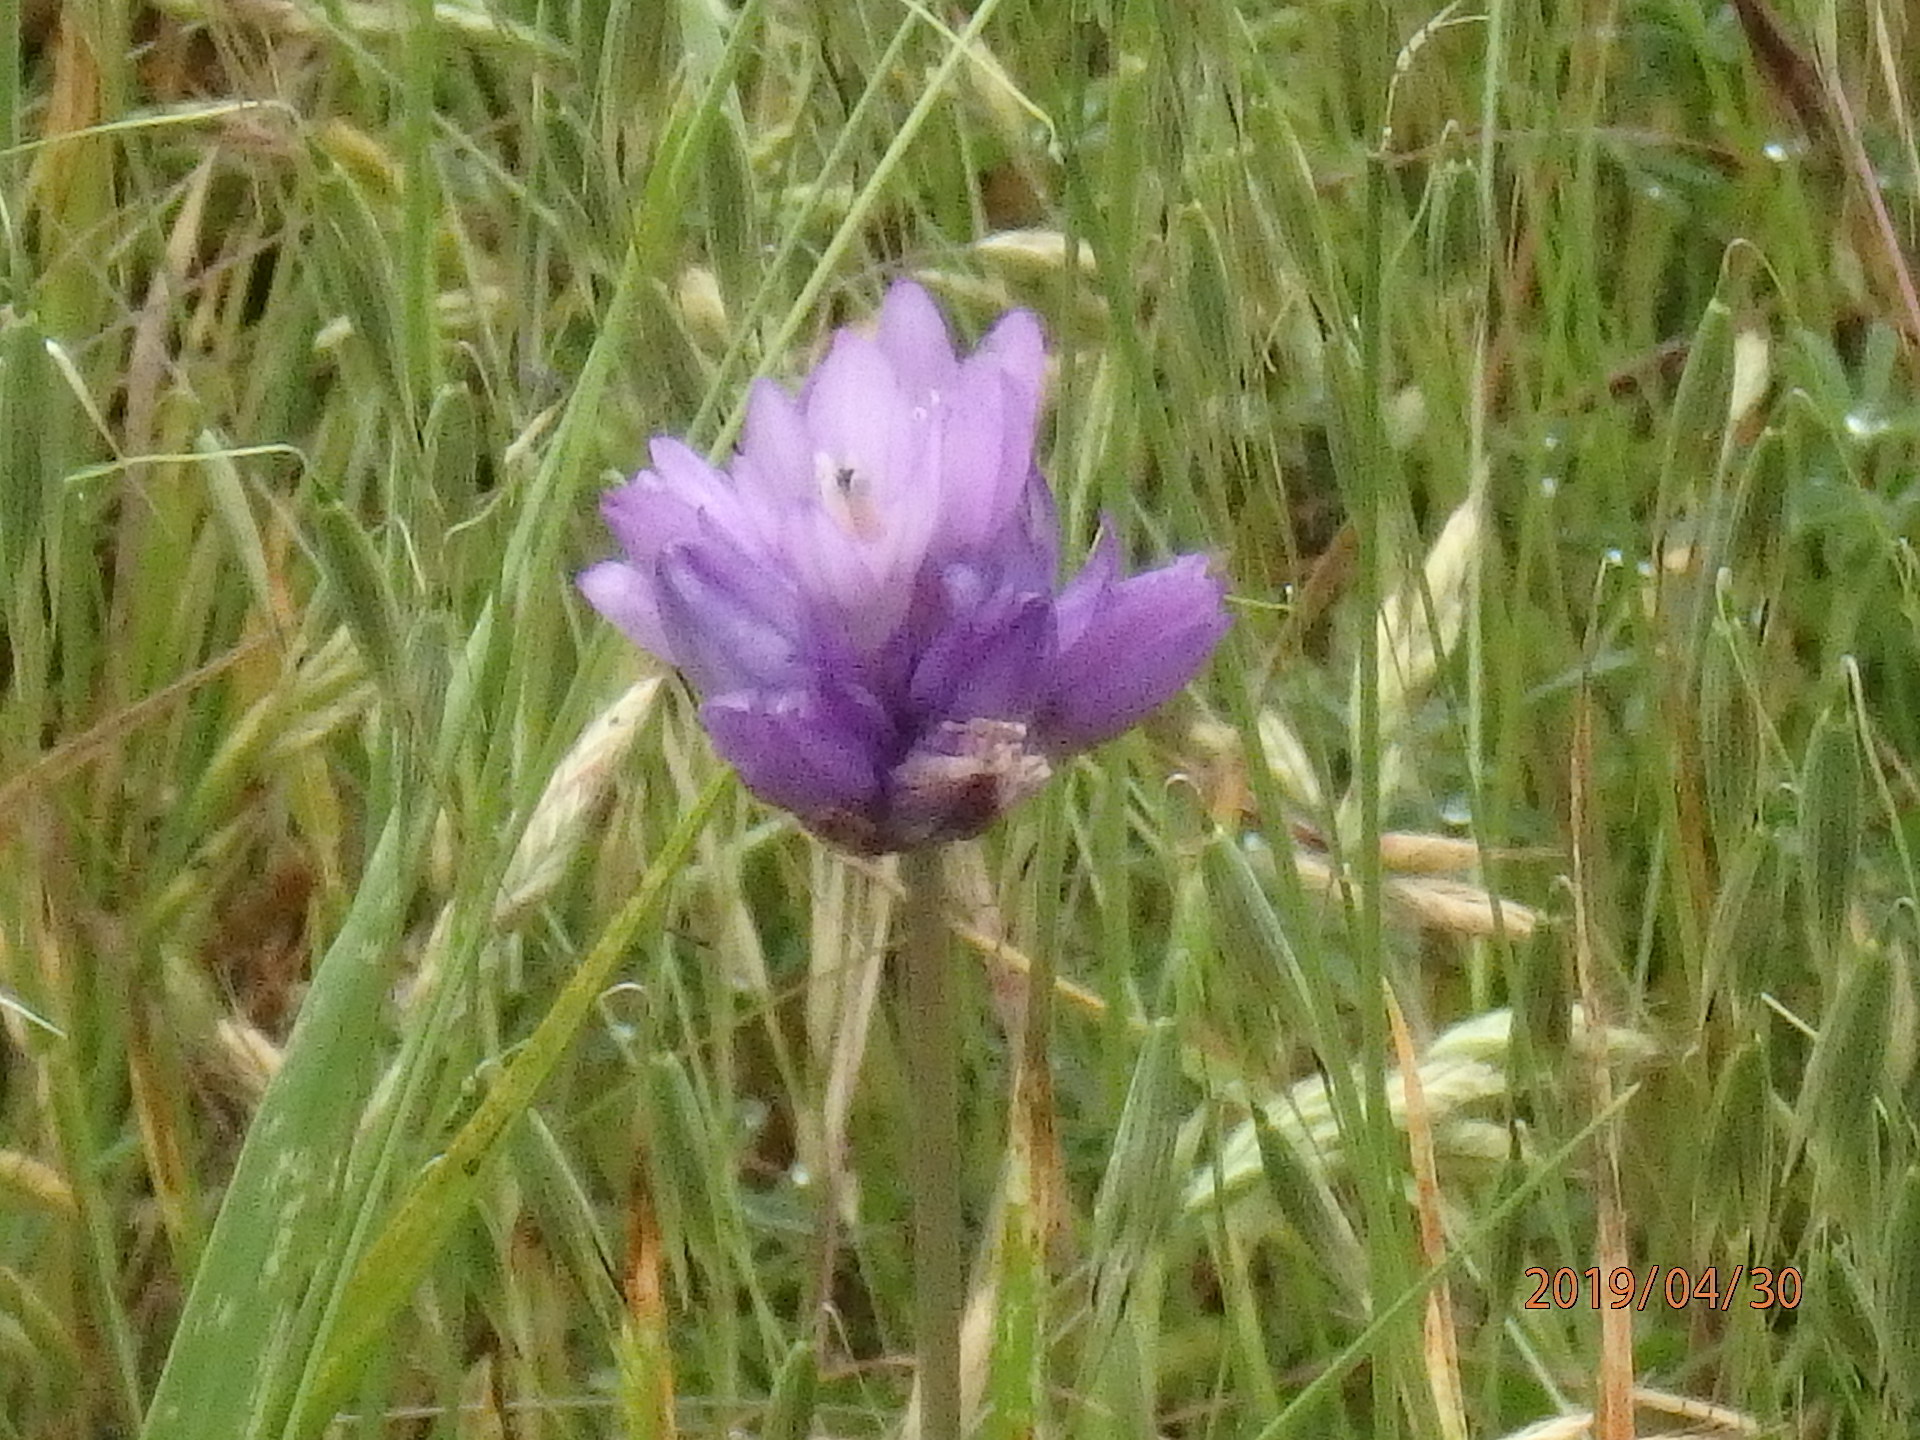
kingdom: Plantae
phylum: Tracheophyta
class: Liliopsida
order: Asparagales
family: Asparagaceae
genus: Dipterostemon
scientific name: Dipterostemon capitatus
